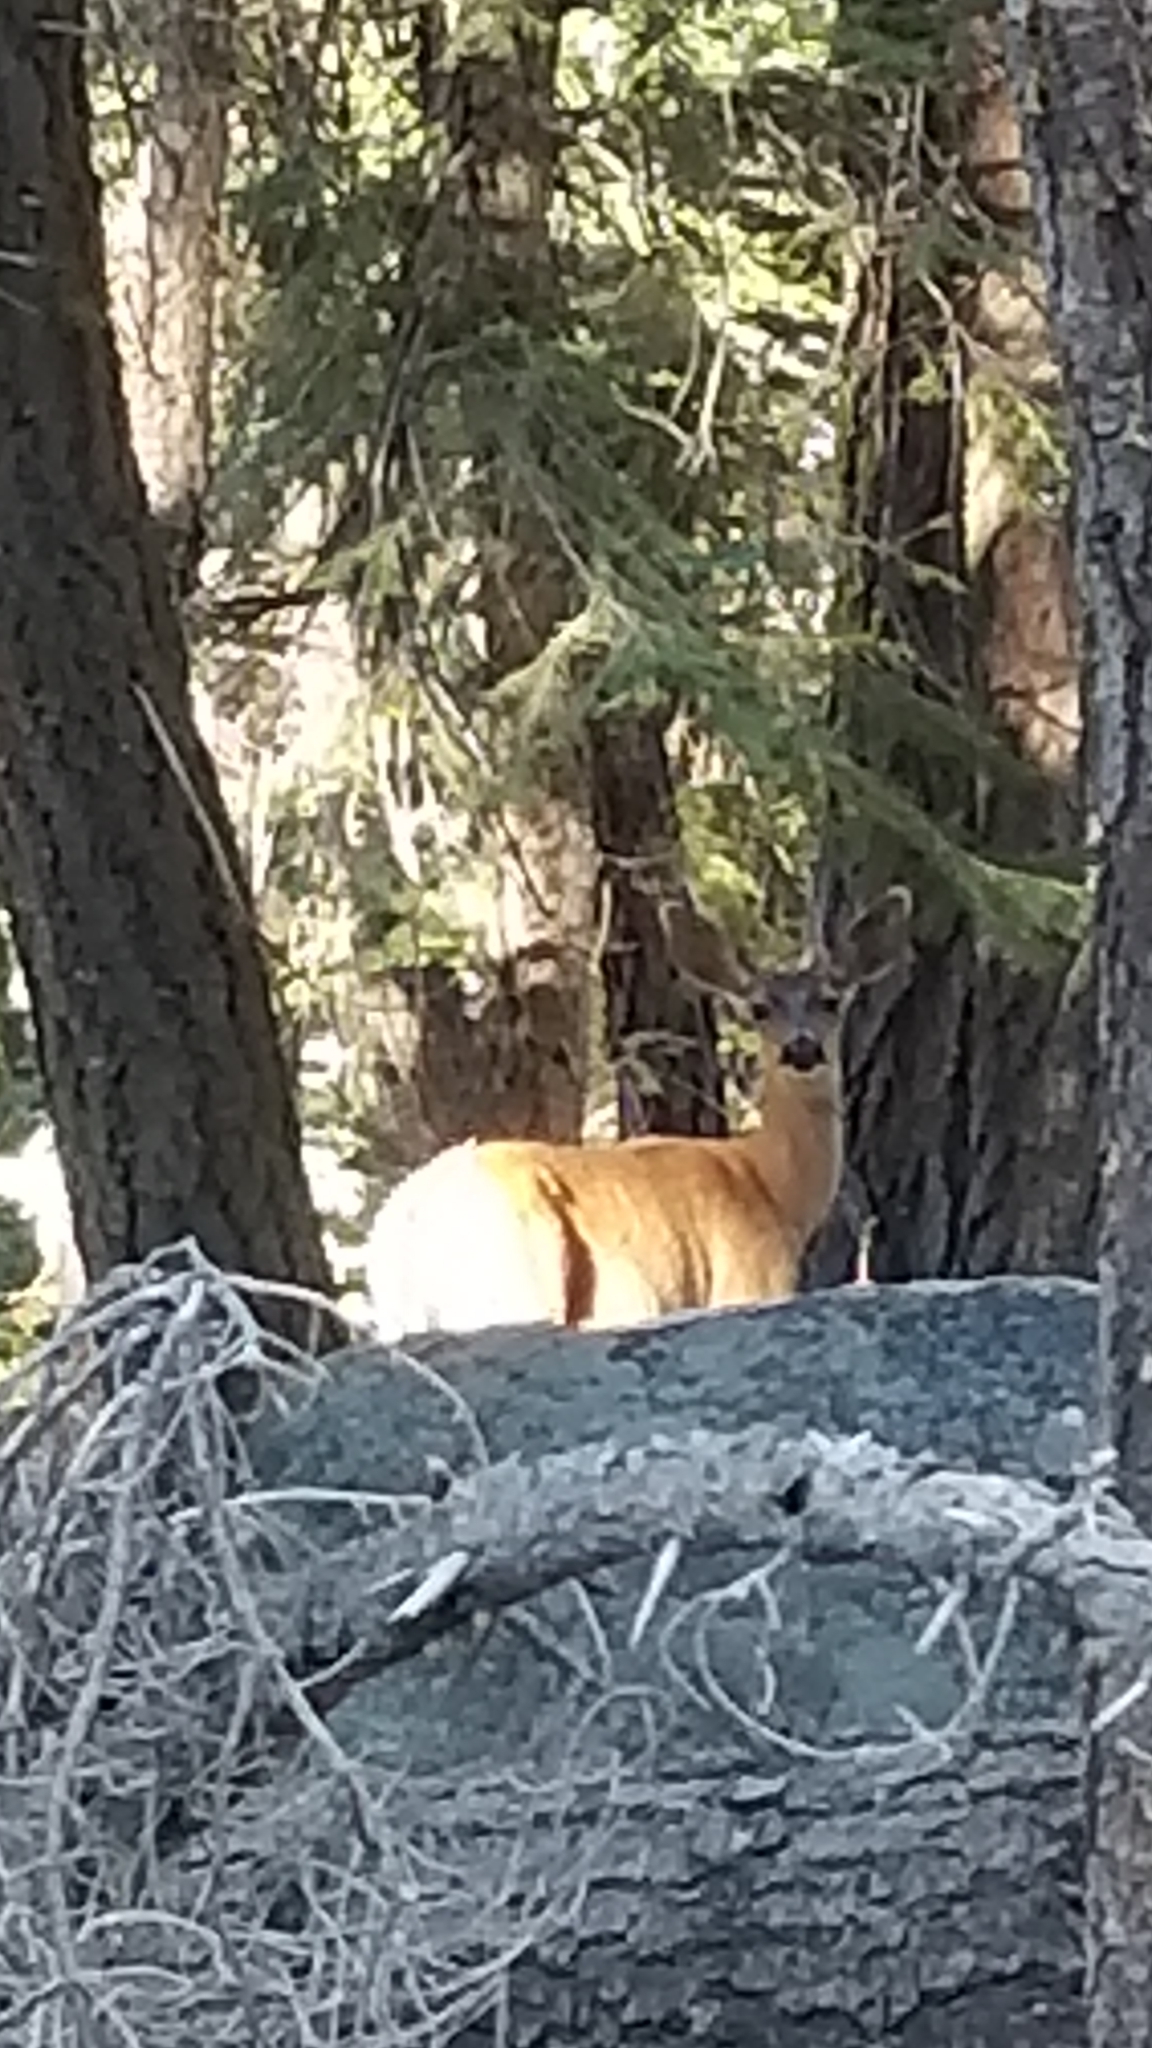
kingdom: Animalia
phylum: Chordata
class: Mammalia
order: Artiodactyla
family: Cervidae
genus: Odocoileus
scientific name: Odocoileus hemionus
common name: Mule deer
